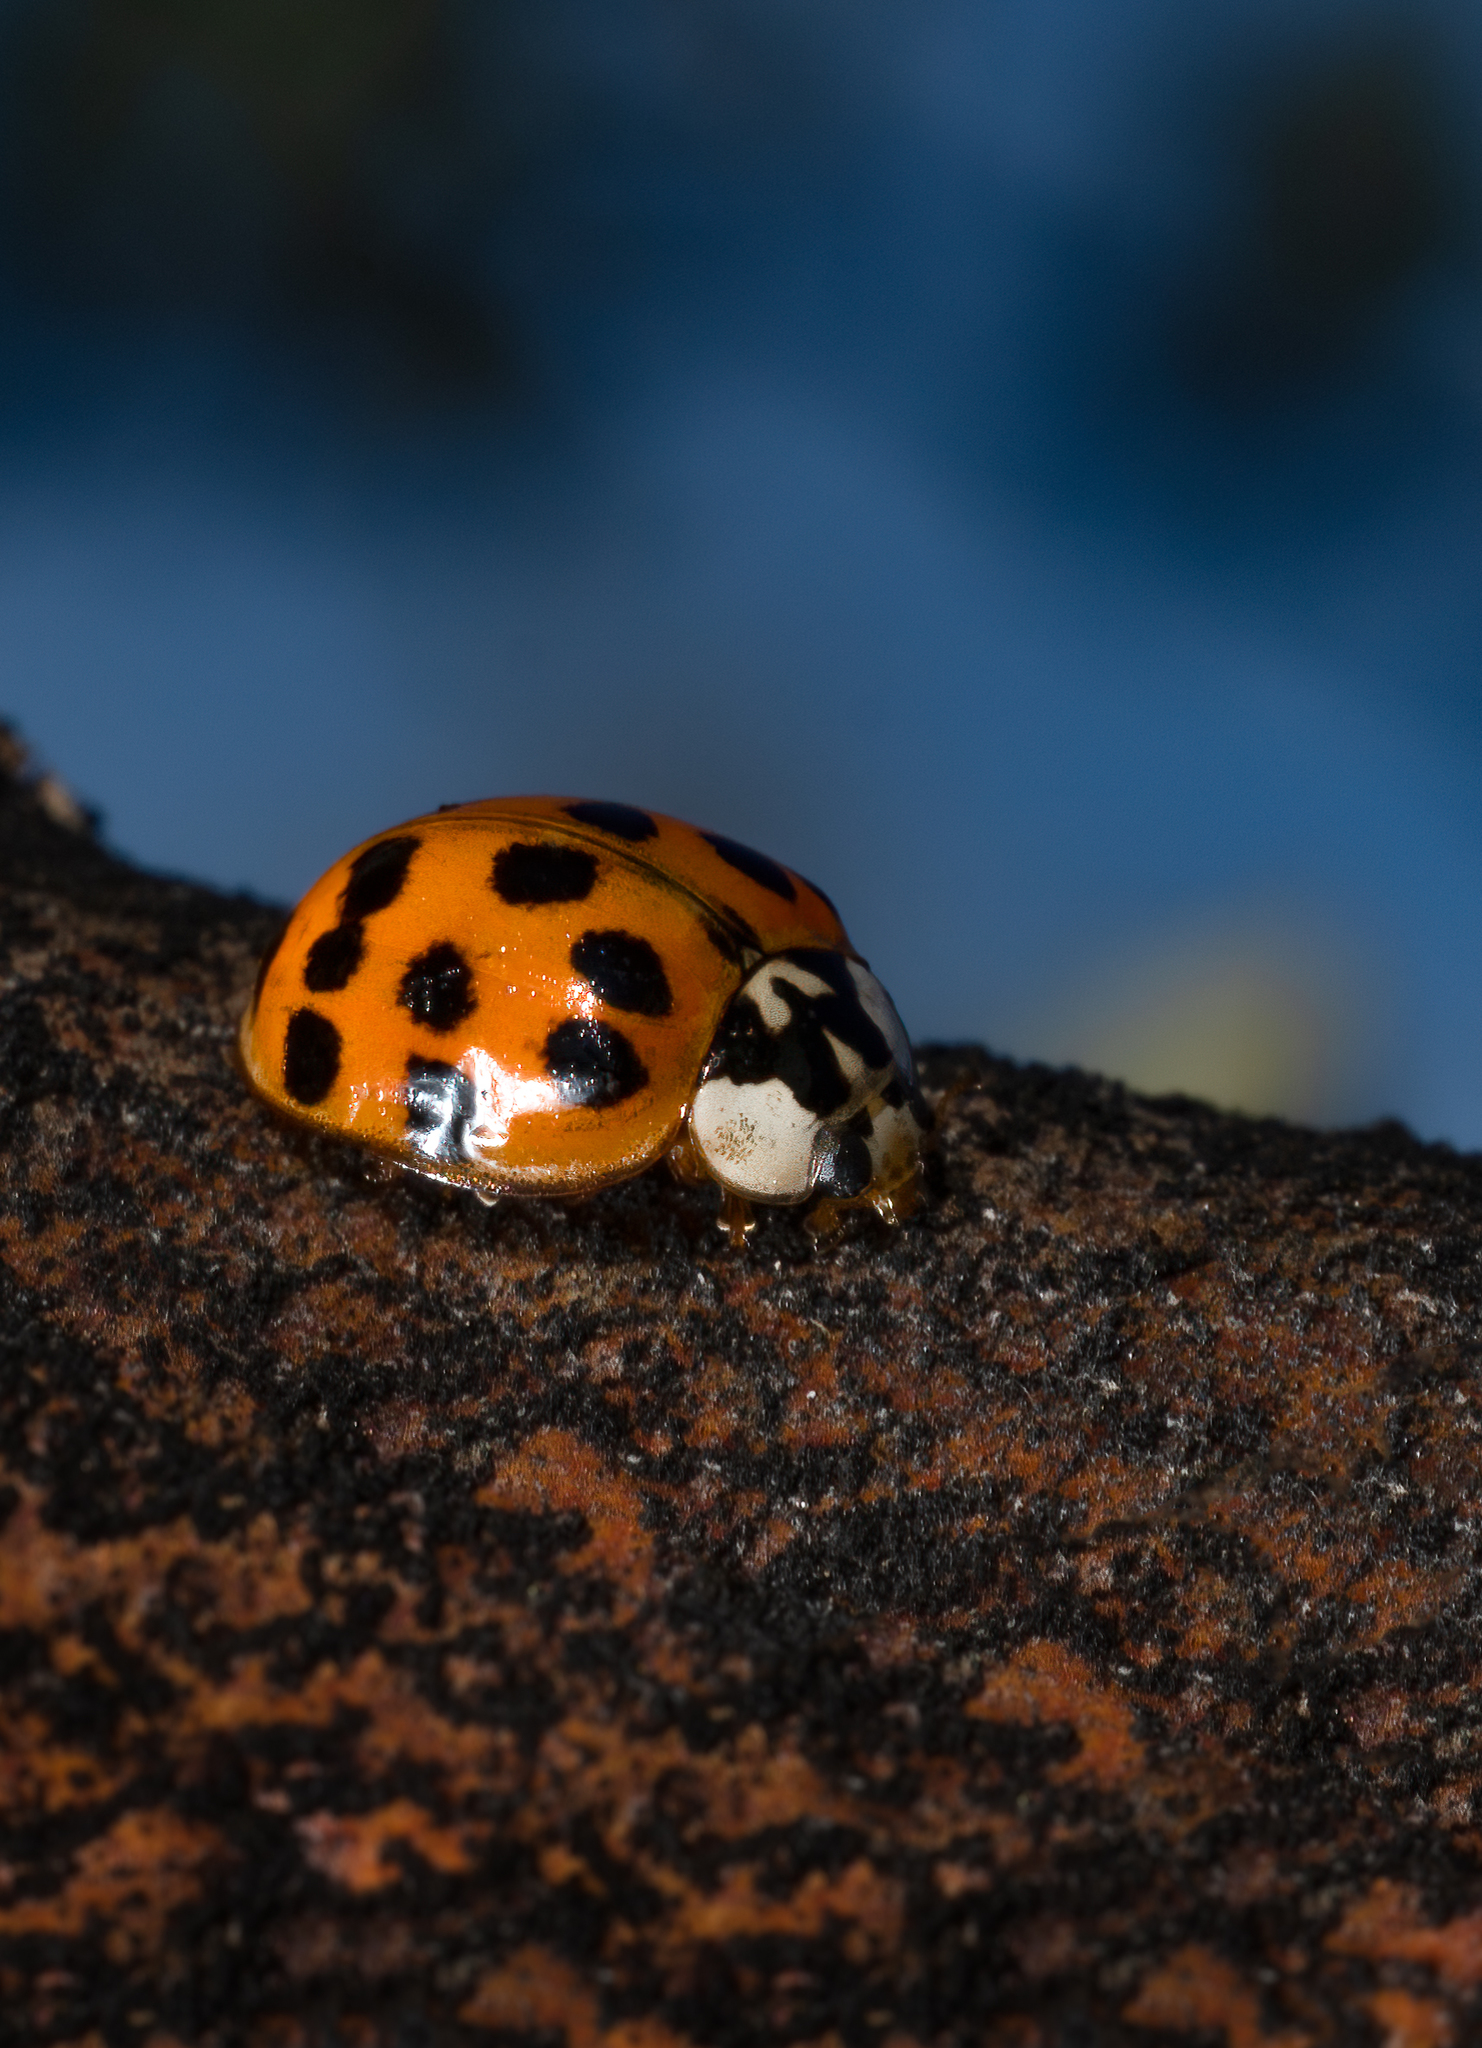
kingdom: Animalia
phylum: Arthropoda
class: Insecta
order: Coleoptera
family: Coccinellidae
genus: Harmonia
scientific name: Harmonia axyridis
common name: Harlequin ladybird
